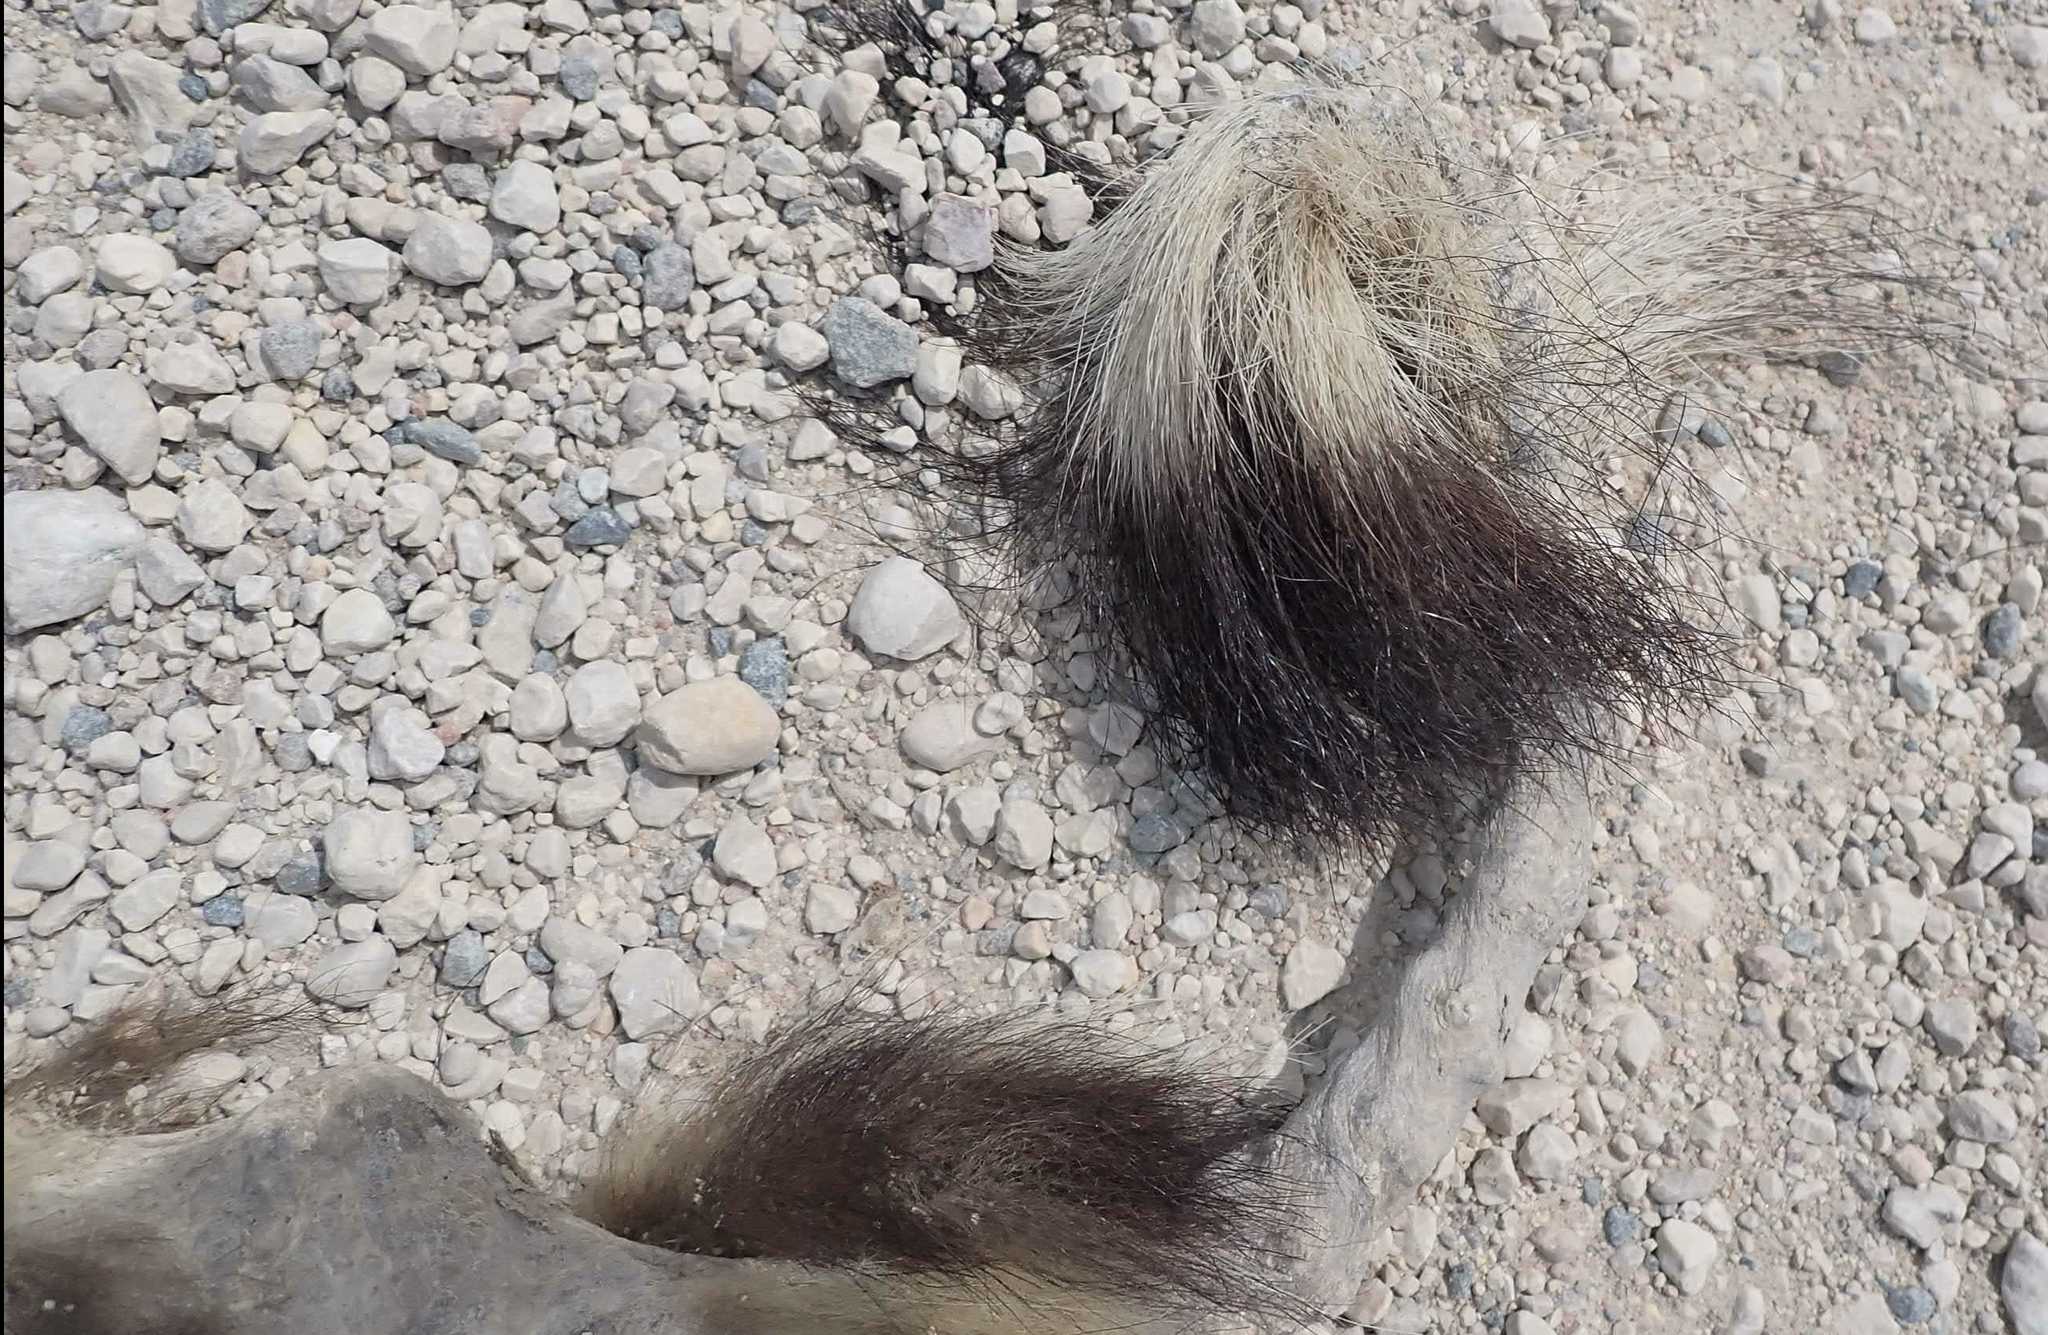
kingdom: Animalia
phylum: Chordata
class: Mammalia
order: Carnivora
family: Mephitidae
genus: Mephitis
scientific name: Mephitis mephitis
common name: Striped skunk
